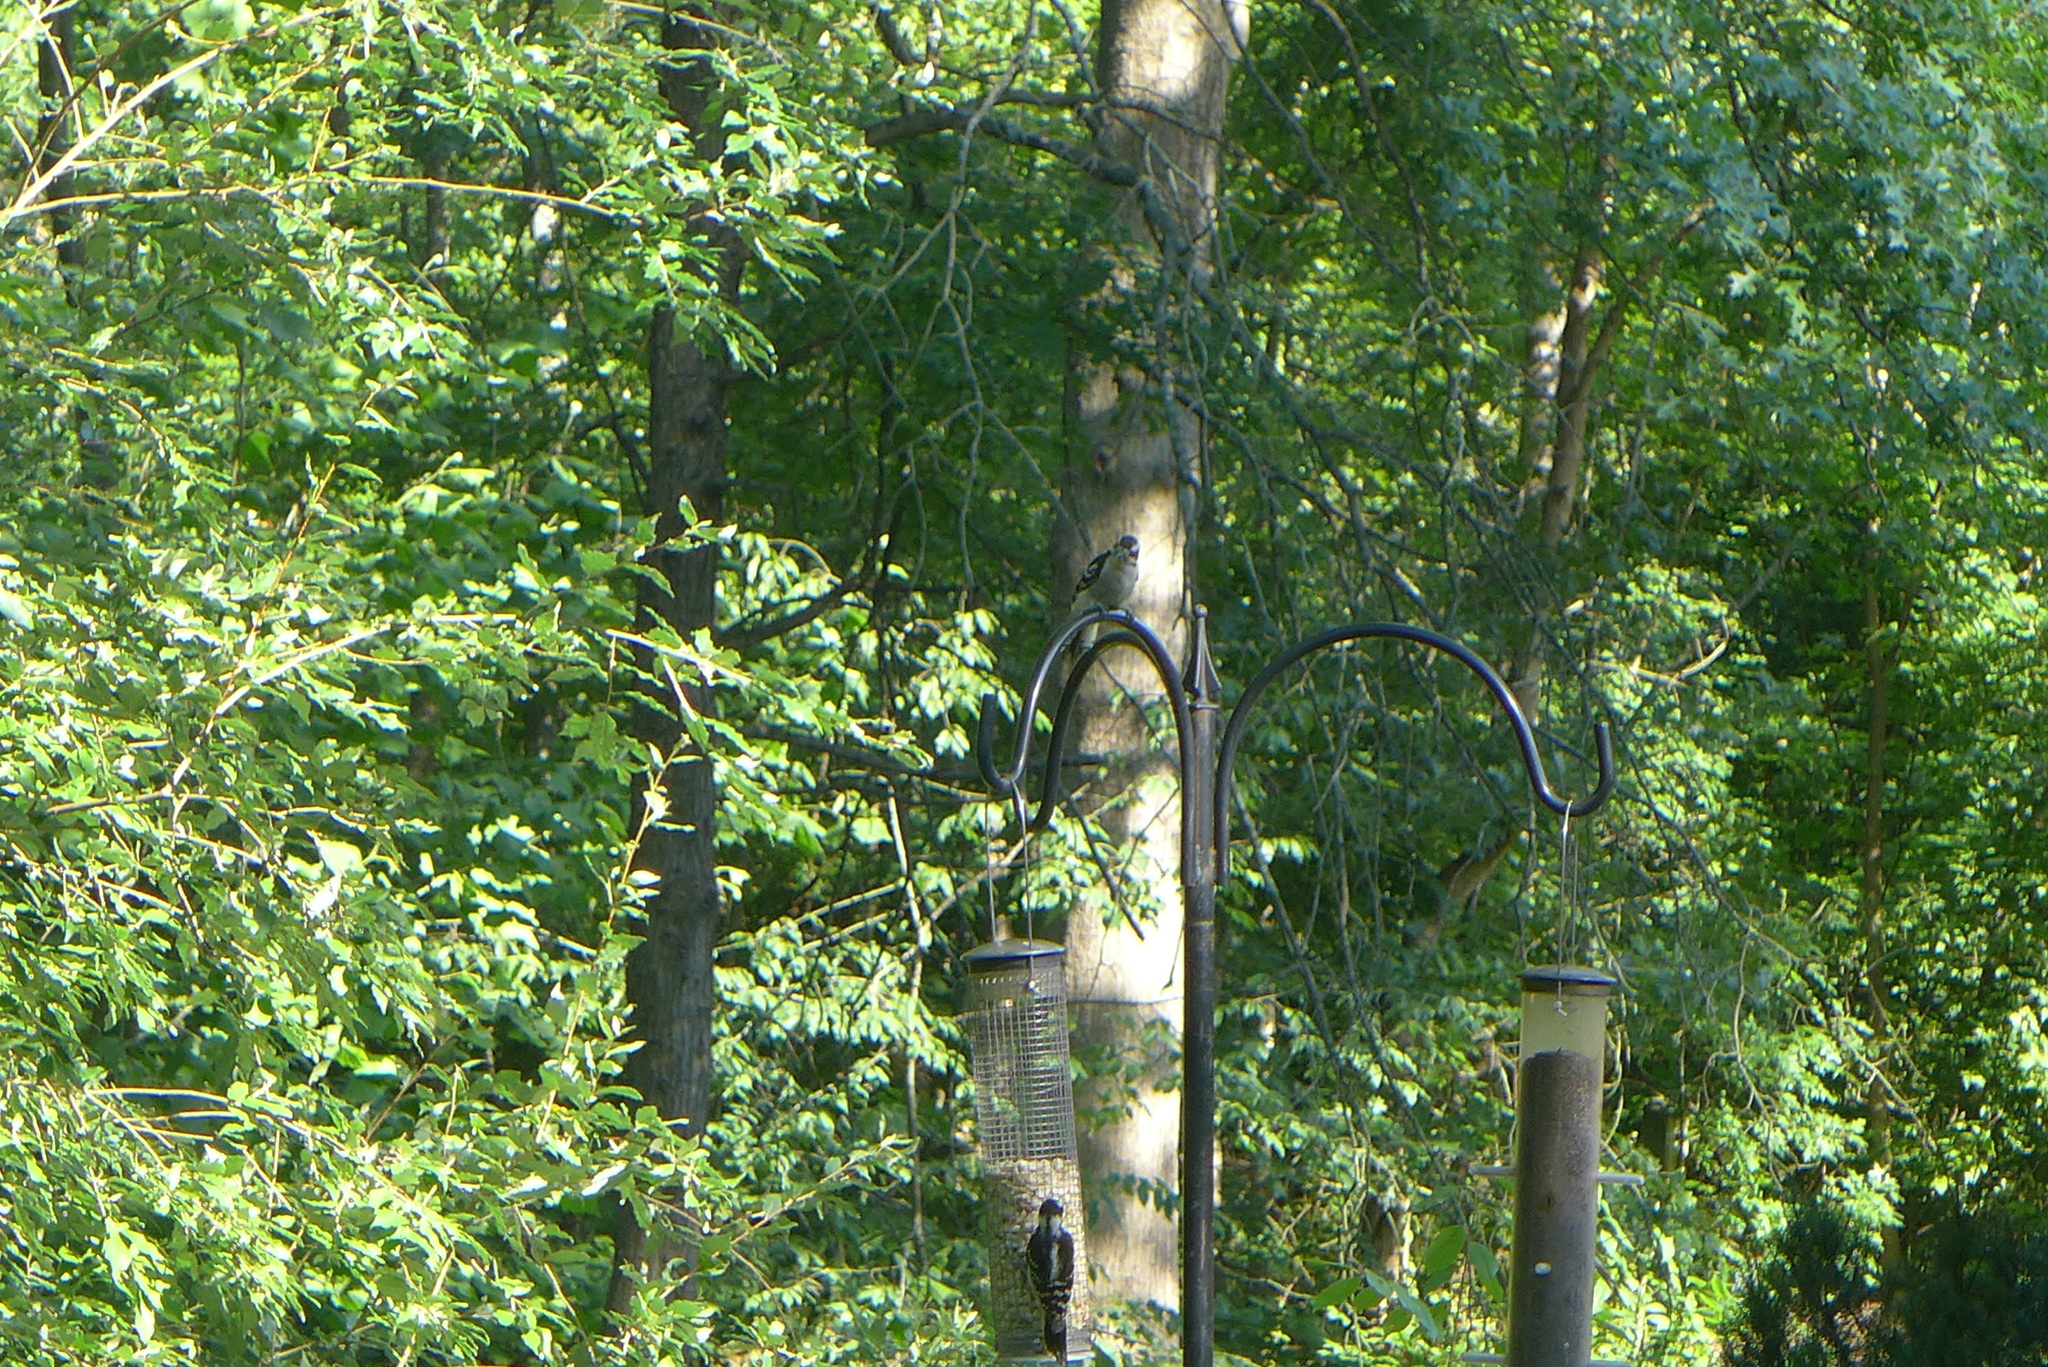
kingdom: Animalia
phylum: Chordata
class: Aves
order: Piciformes
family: Picidae
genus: Dryobates
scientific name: Dryobates pubescens
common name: Downy woodpecker
